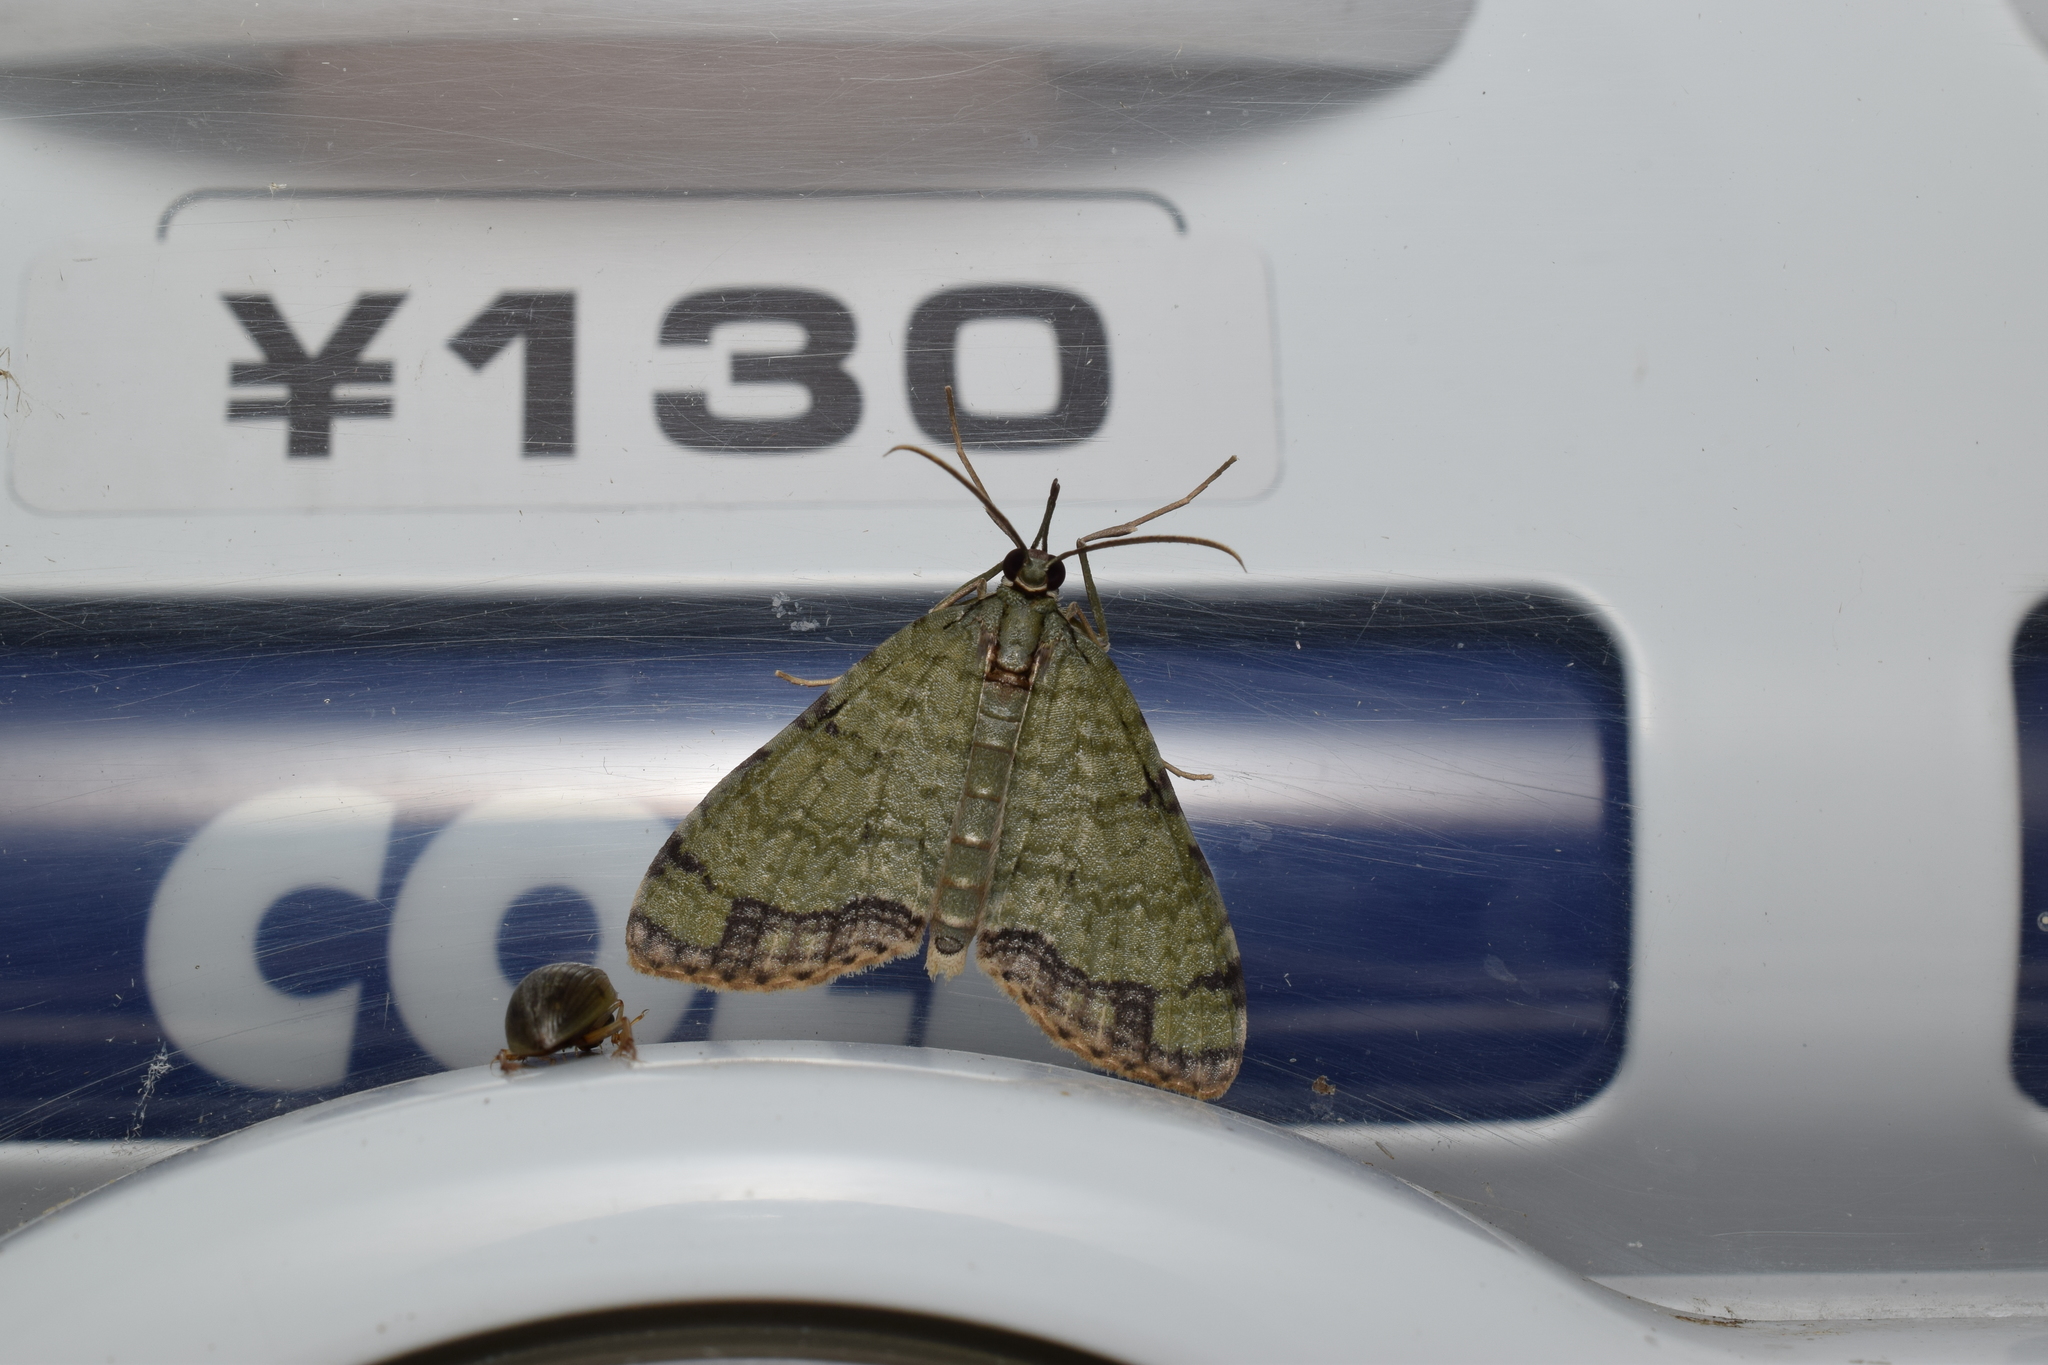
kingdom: Animalia
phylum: Arthropoda
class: Insecta
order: Lepidoptera
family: Geometridae
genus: Episteira
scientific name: Episteira nigrilinearia
